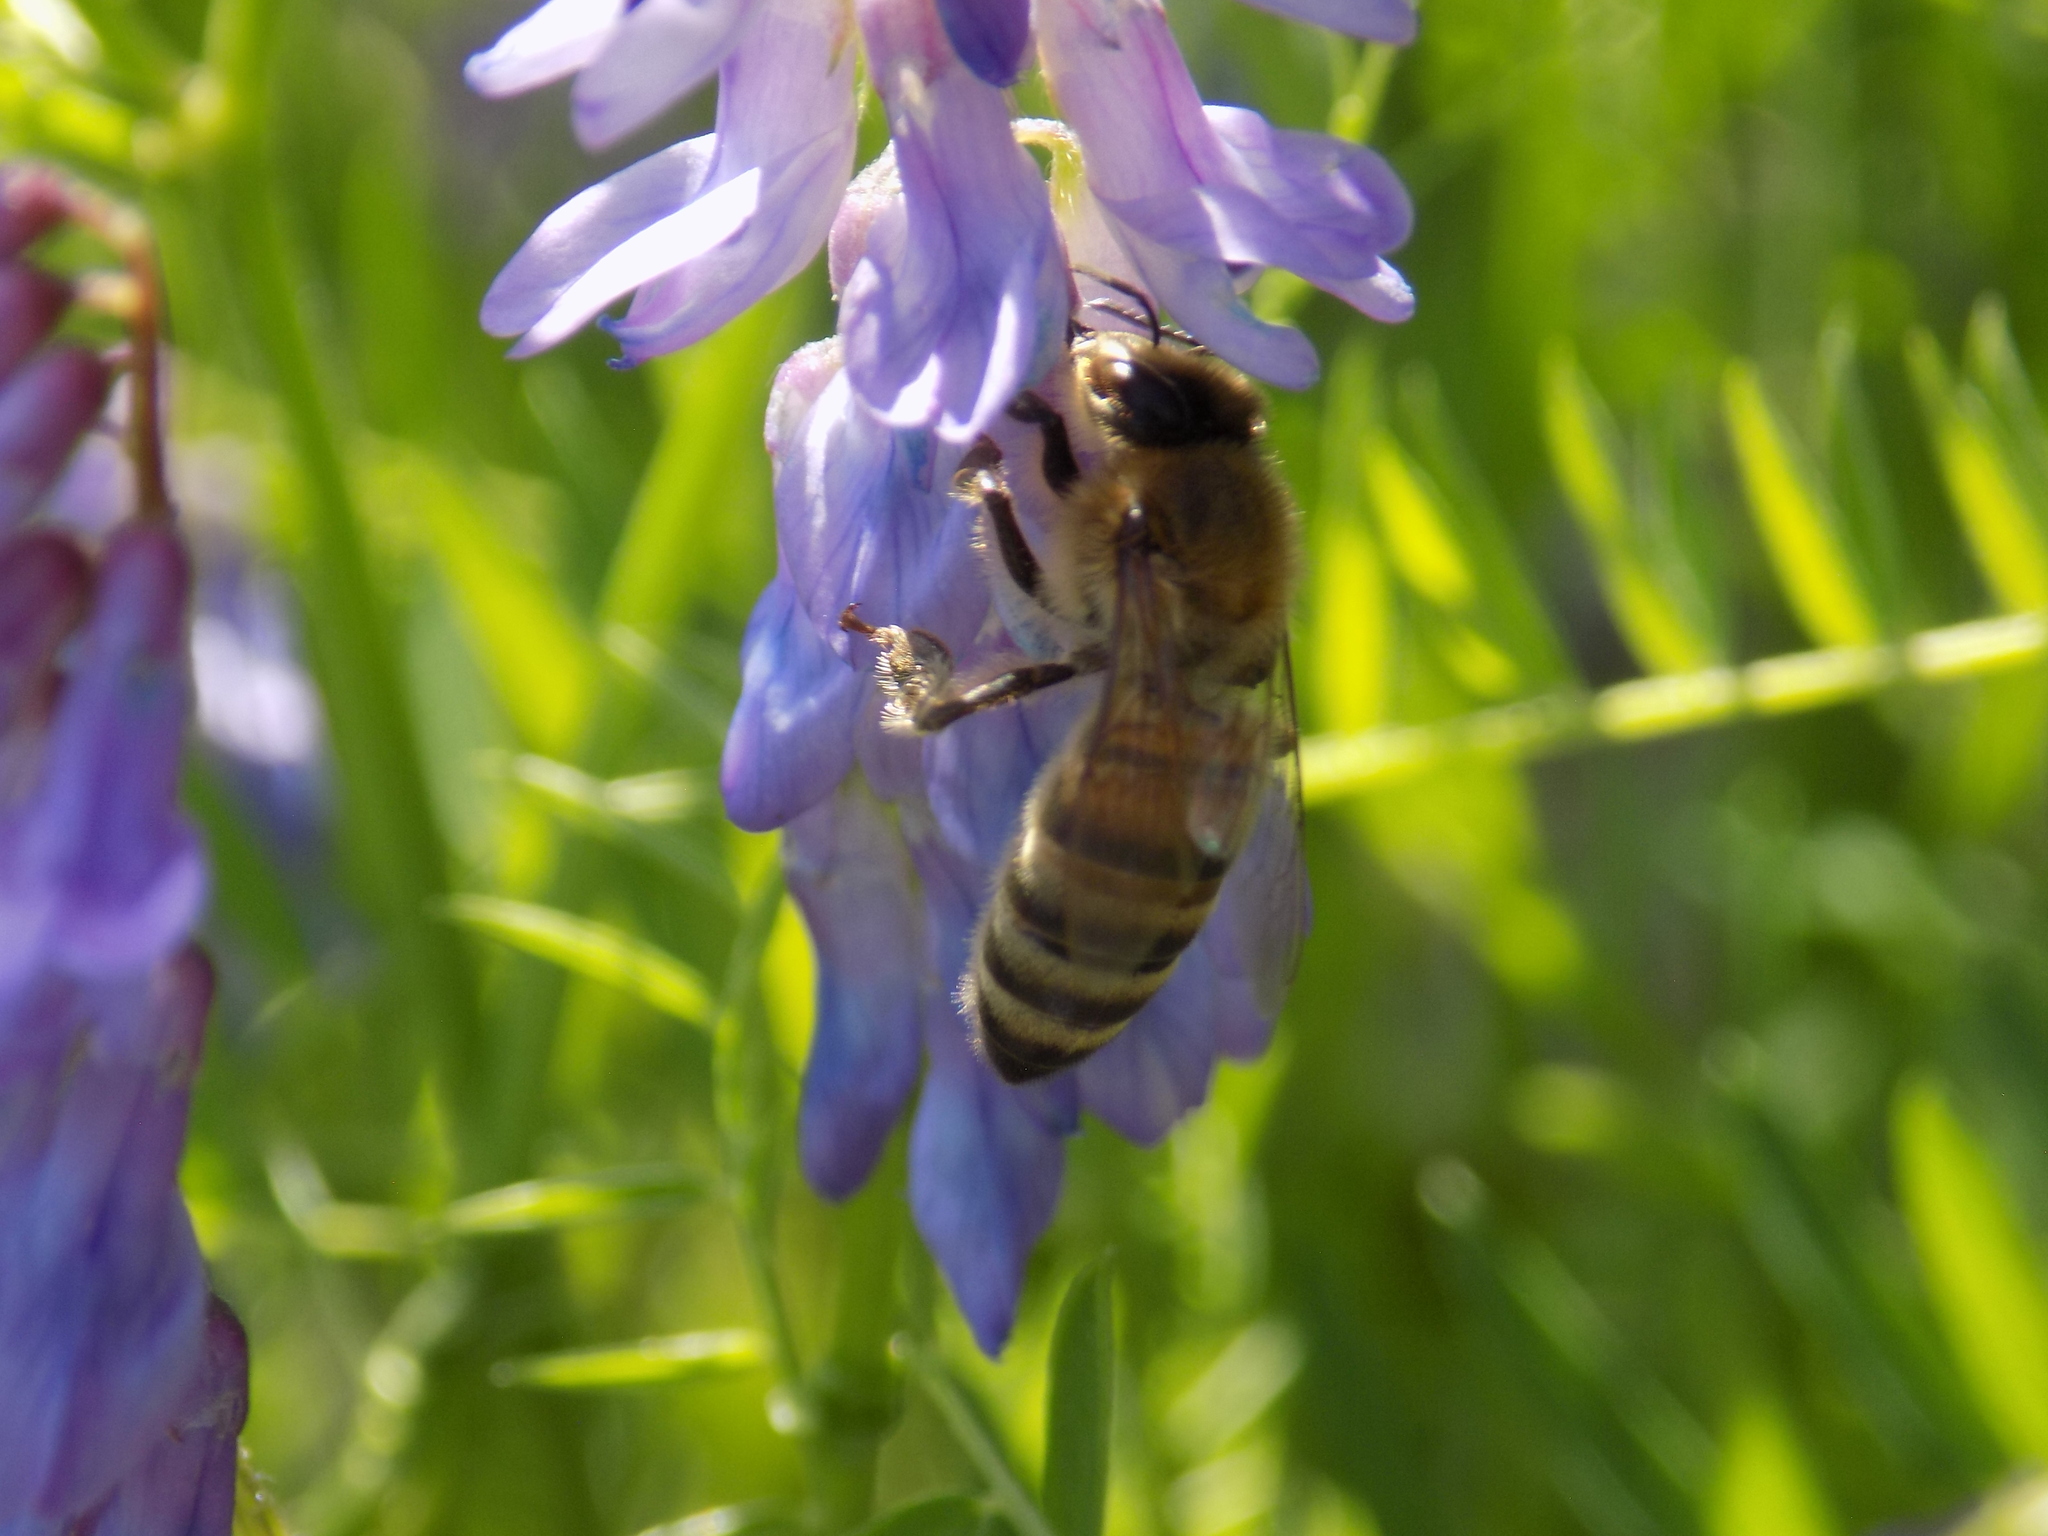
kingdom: Animalia
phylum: Arthropoda
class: Insecta
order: Hymenoptera
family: Apidae
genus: Apis
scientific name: Apis mellifera
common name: Honey bee
